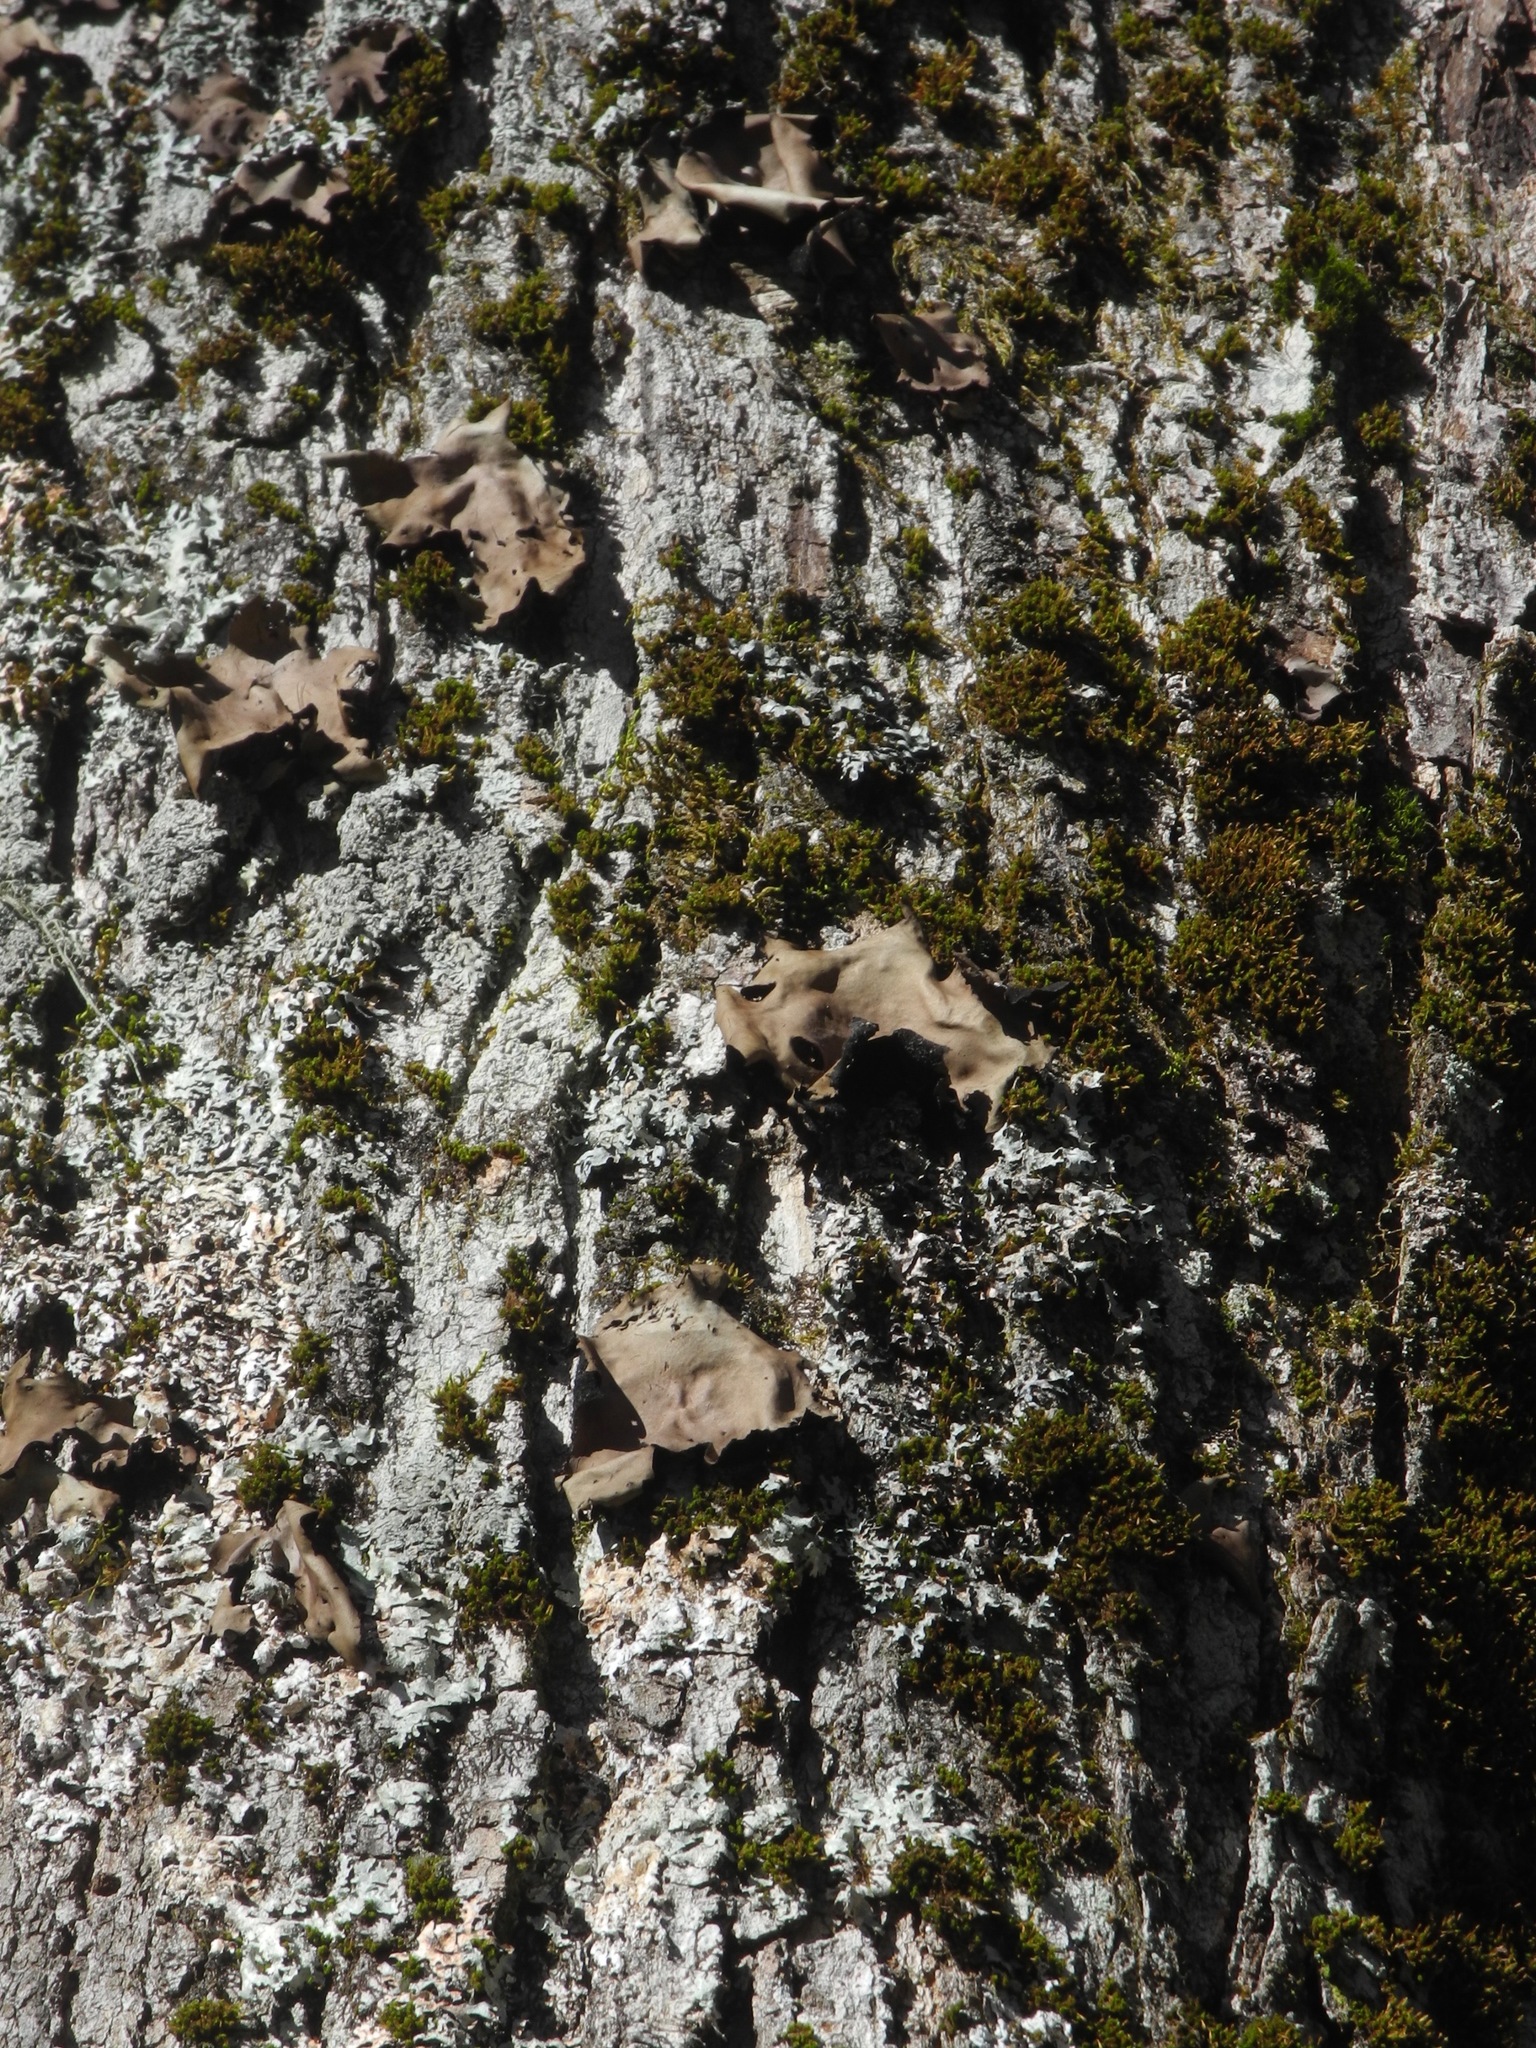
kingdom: Fungi
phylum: Ascomycota
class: Lecanoromycetes
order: Umbilicariales
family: Umbilicariaceae
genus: Umbilicaria
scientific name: Umbilicaria mammulata
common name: Smooth rock tripe
